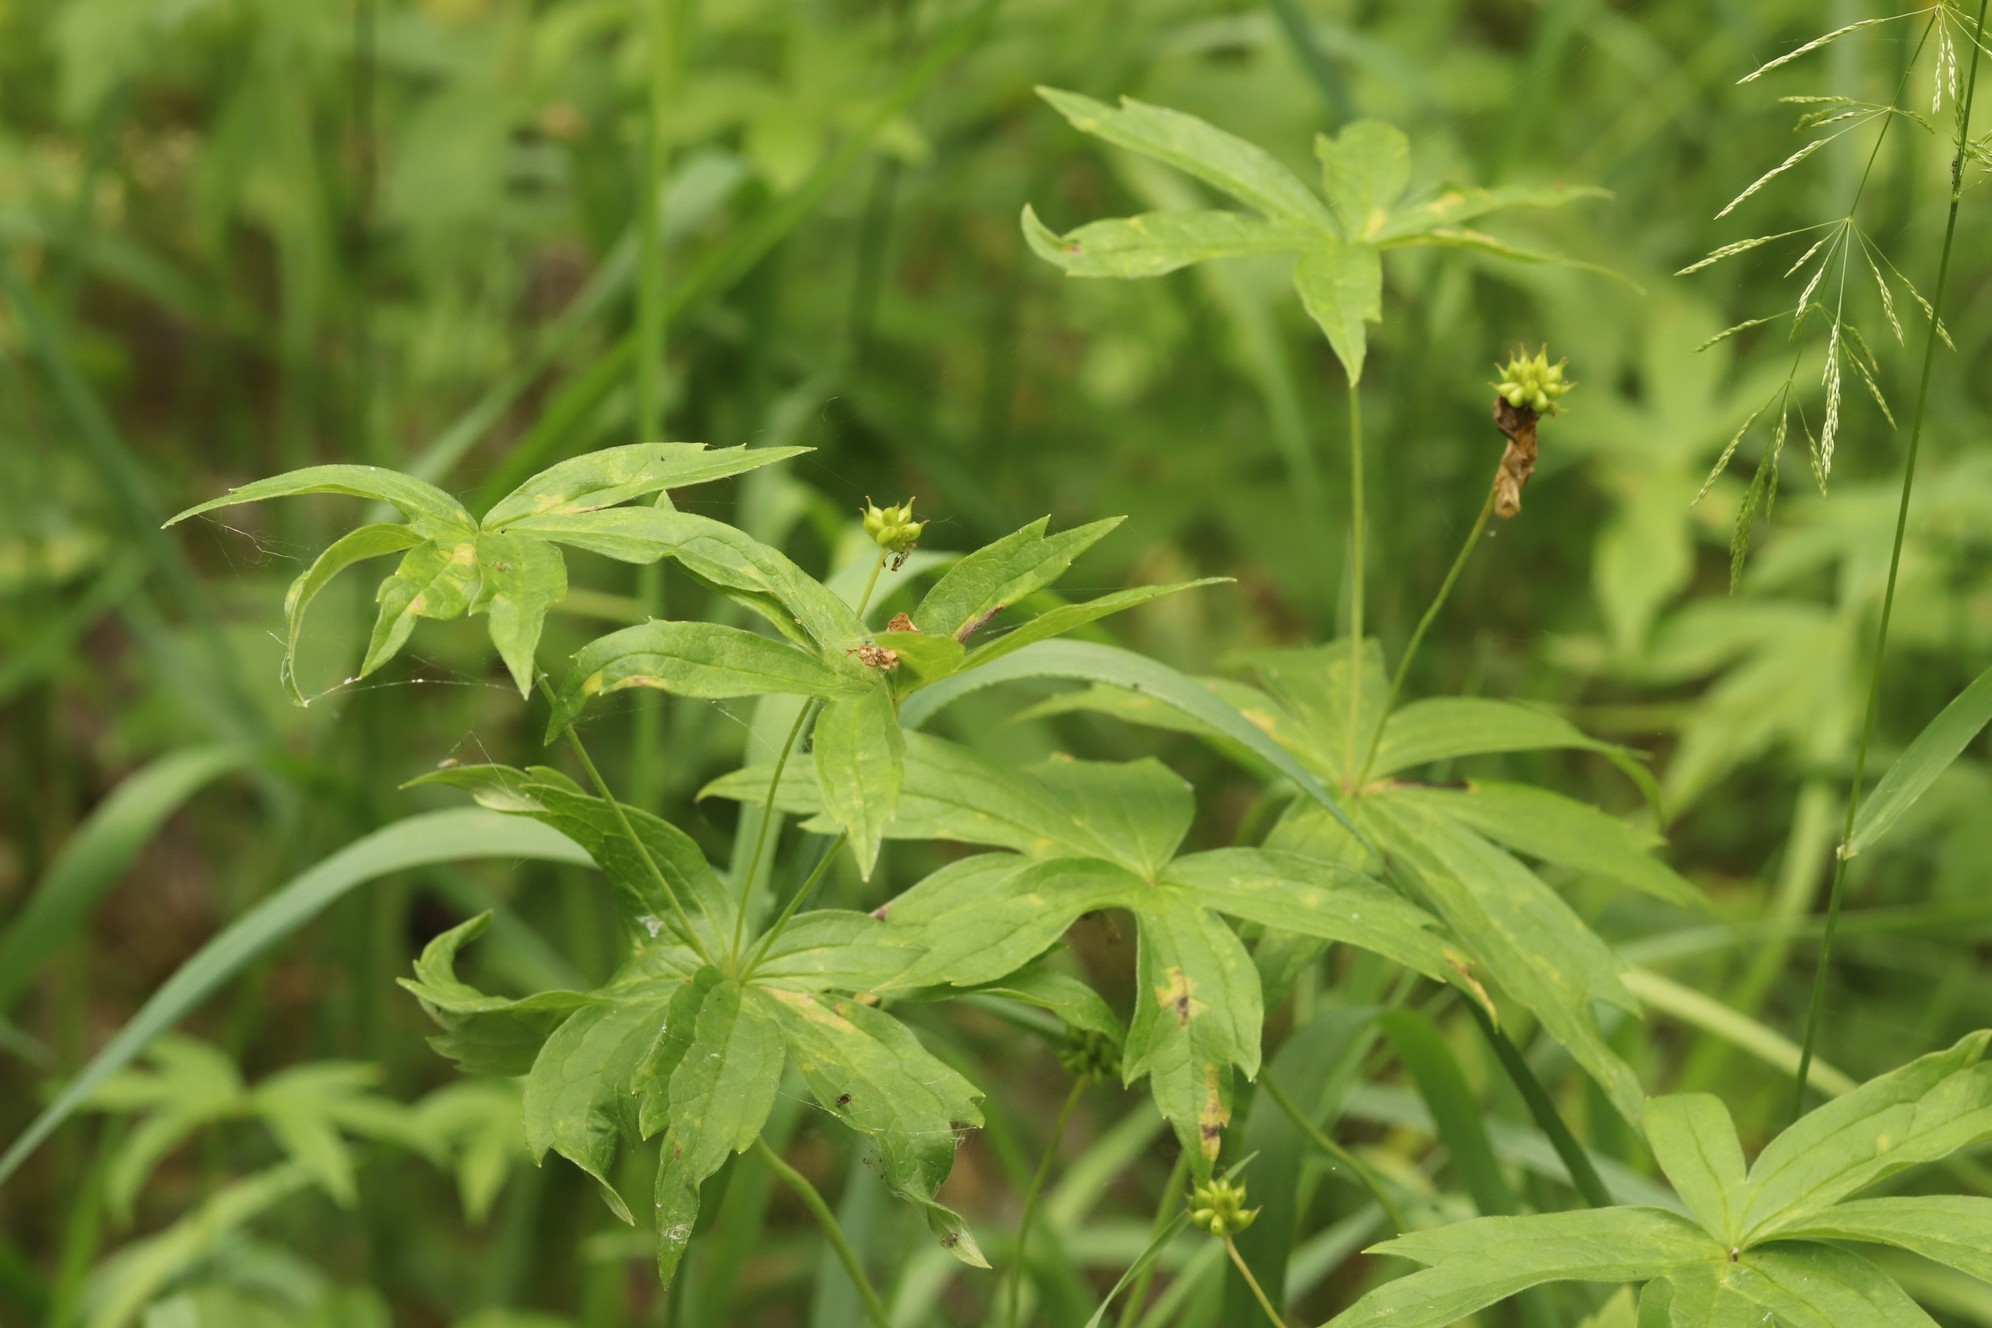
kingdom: Plantae
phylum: Tracheophyta
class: Magnoliopsida
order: Ranunculales
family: Ranunculaceae
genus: Anemonastrum
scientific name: Anemonastrum dichotomum
